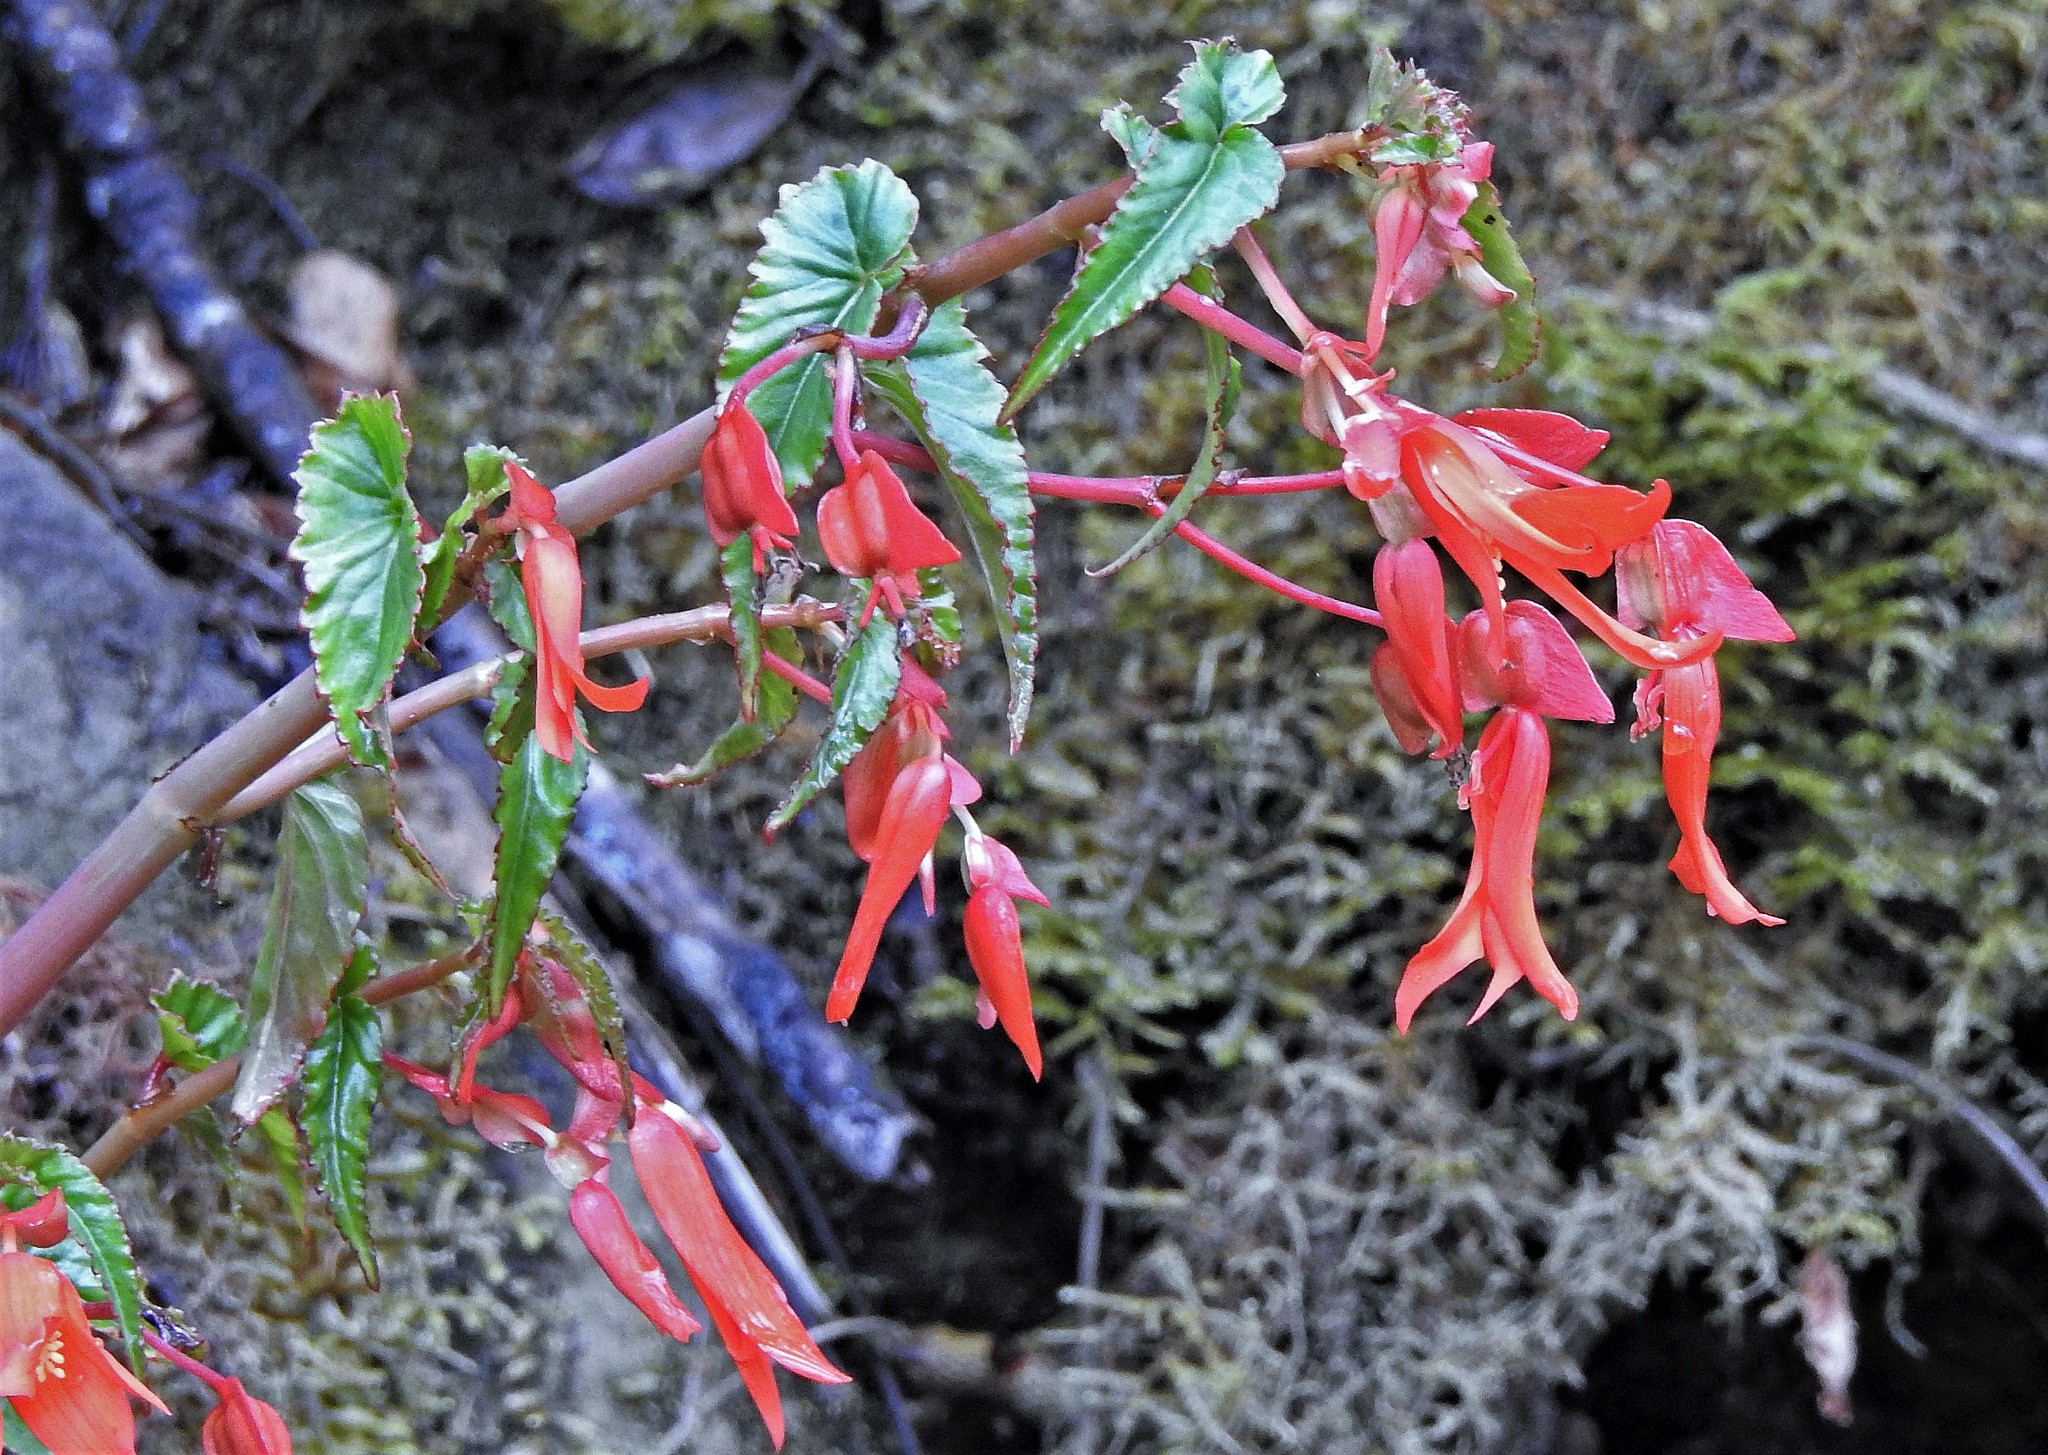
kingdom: Plantae
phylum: Tracheophyta
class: Magnoliopsida
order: Cucurbitales
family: Begoniaceae
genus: Begonia
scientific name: Begonia boliviensis
